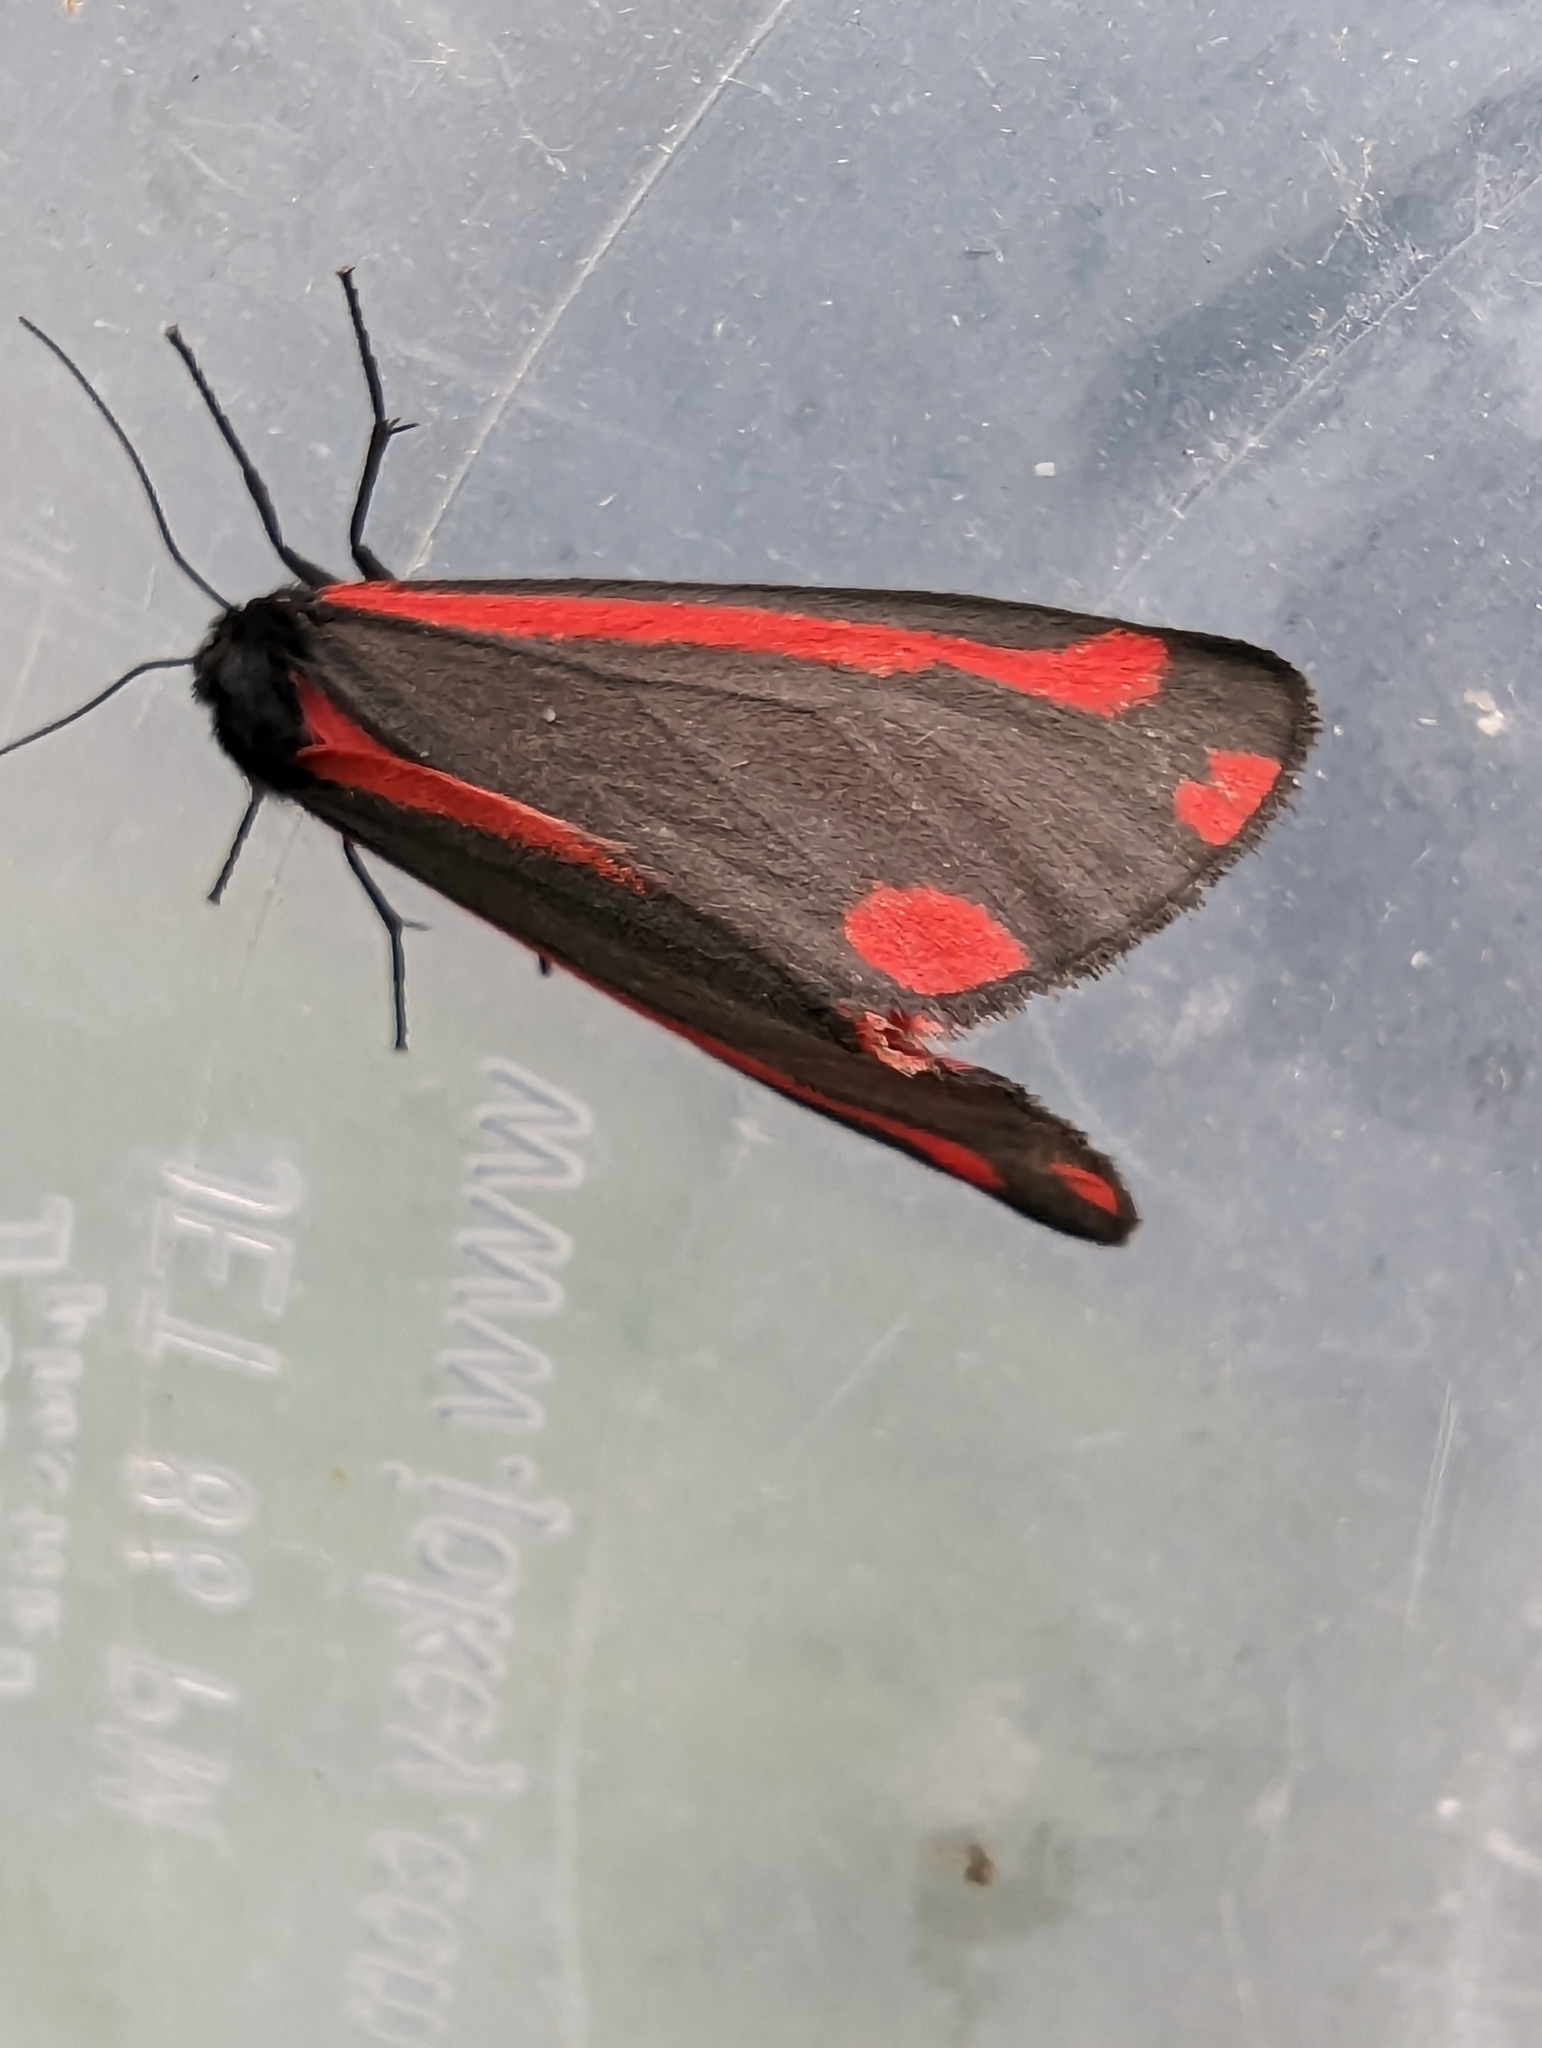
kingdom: Animalia
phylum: Arthropoda
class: Insecta
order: Lepidoptera
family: Erebidae
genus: Tyria
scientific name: Tyria jacobaeae
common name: Cinnabar
